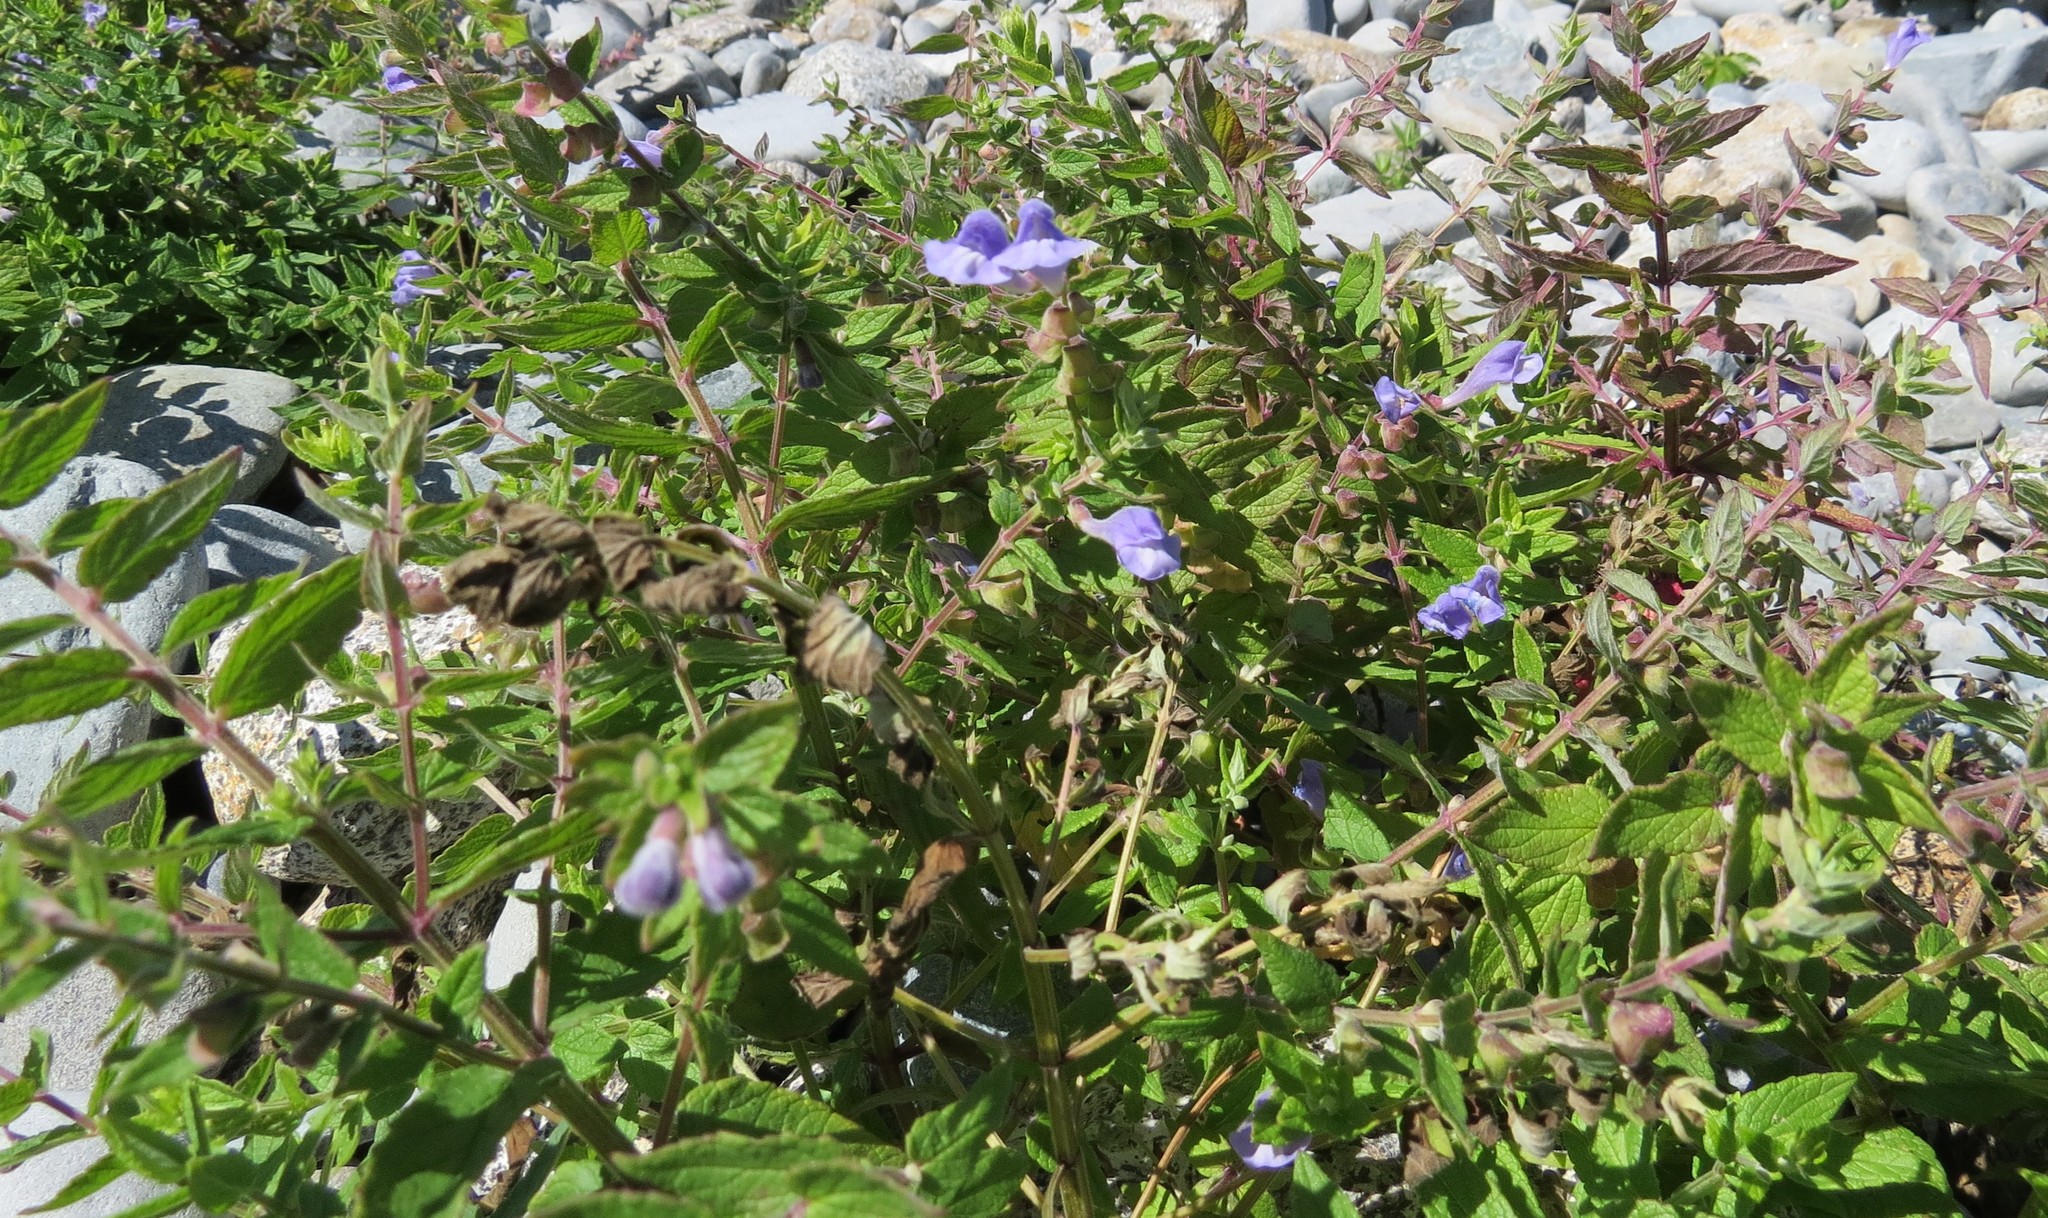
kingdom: Plantae
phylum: Tracheophyta
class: Magnoliopsida
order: Lamiales
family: Lamiaceae
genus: Scutellaria
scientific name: Scutellaria galericulata
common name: Skullcap
